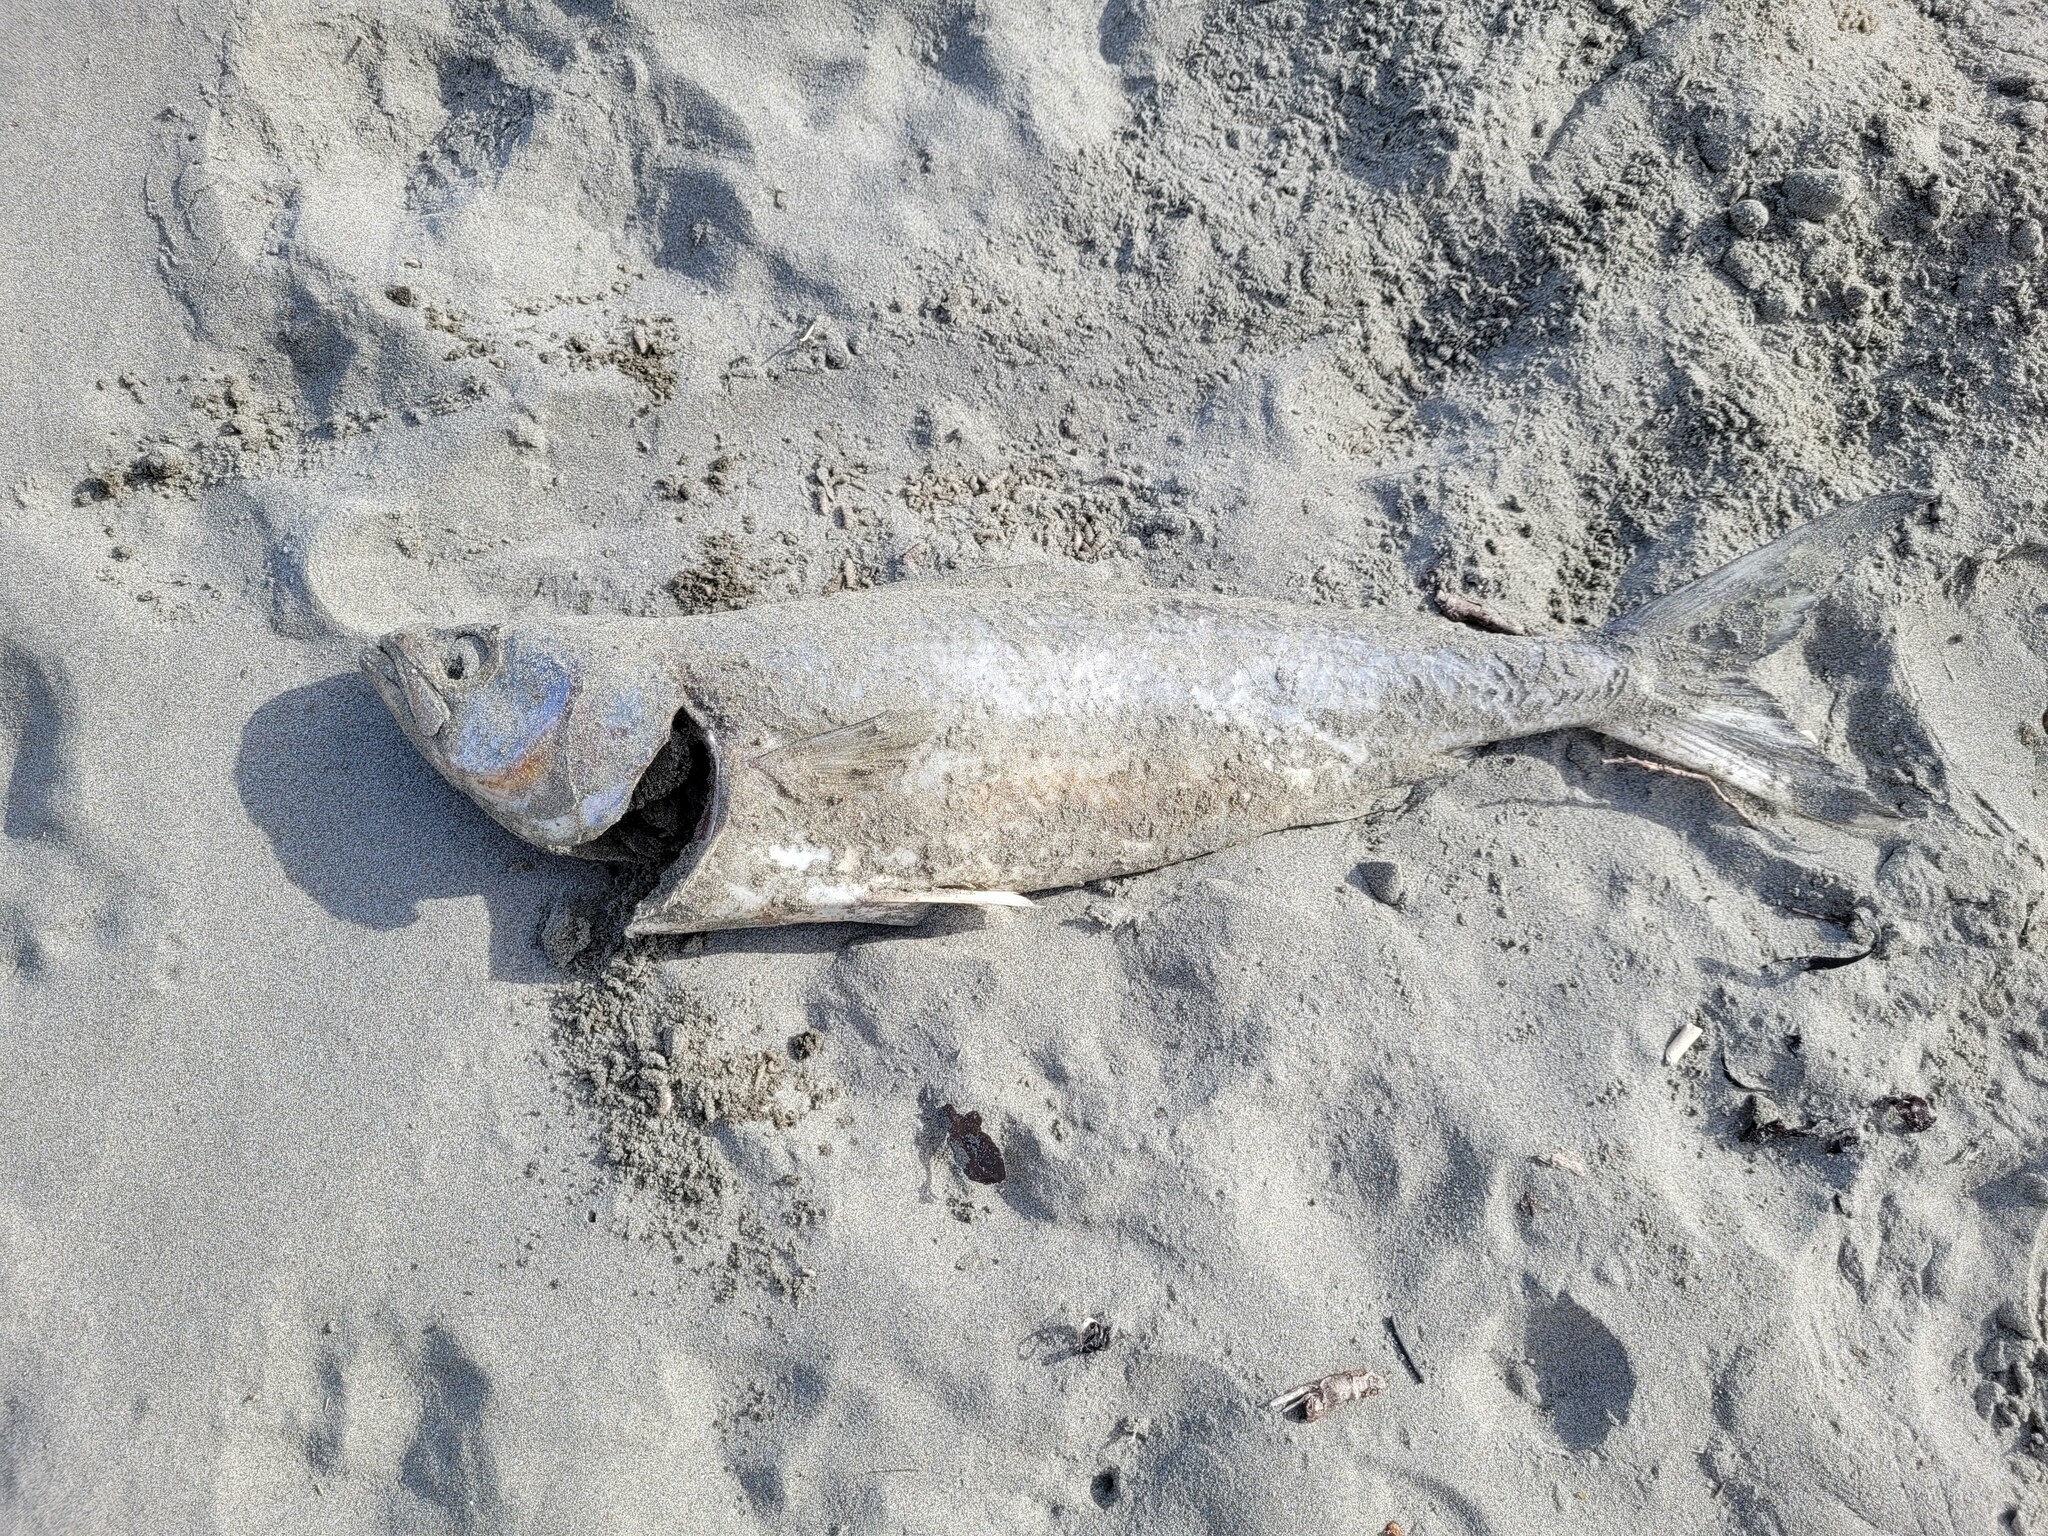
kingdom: Animalia
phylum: Chordata
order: Perciformes
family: Arripidae
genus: Arripis
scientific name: Arripis trutta
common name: Kahawai
